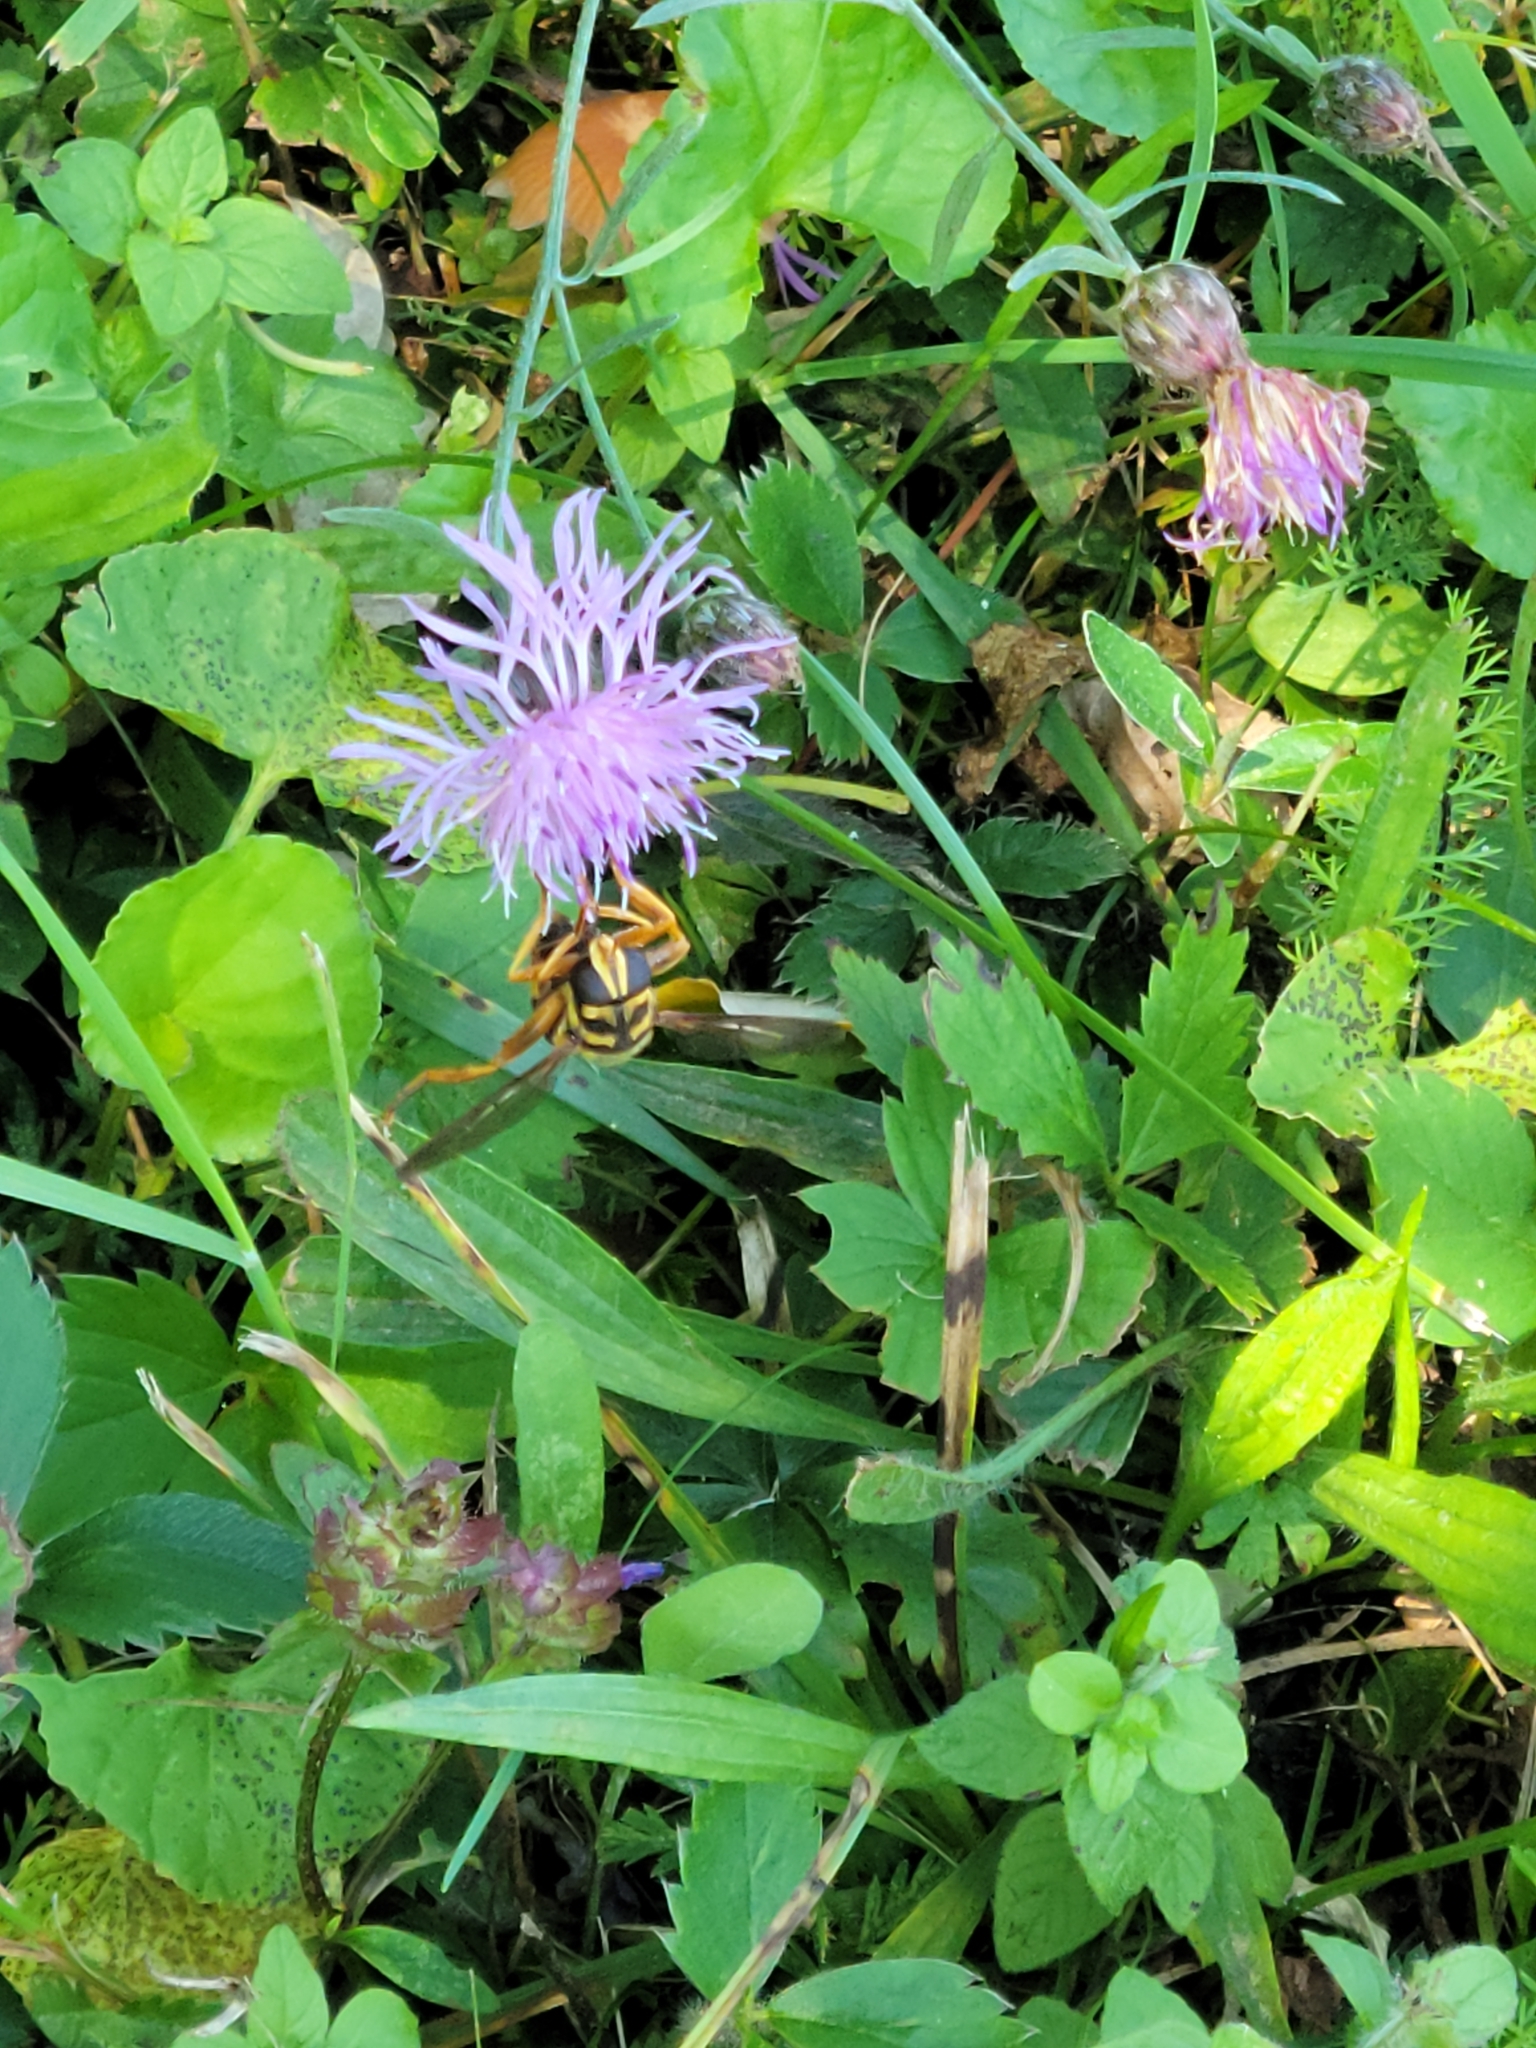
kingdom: Animalia
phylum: Arthropoda
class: Insecta
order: Diptera
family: Syrphidae
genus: Milesia
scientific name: Milesia virginiensis
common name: Virginia giant
